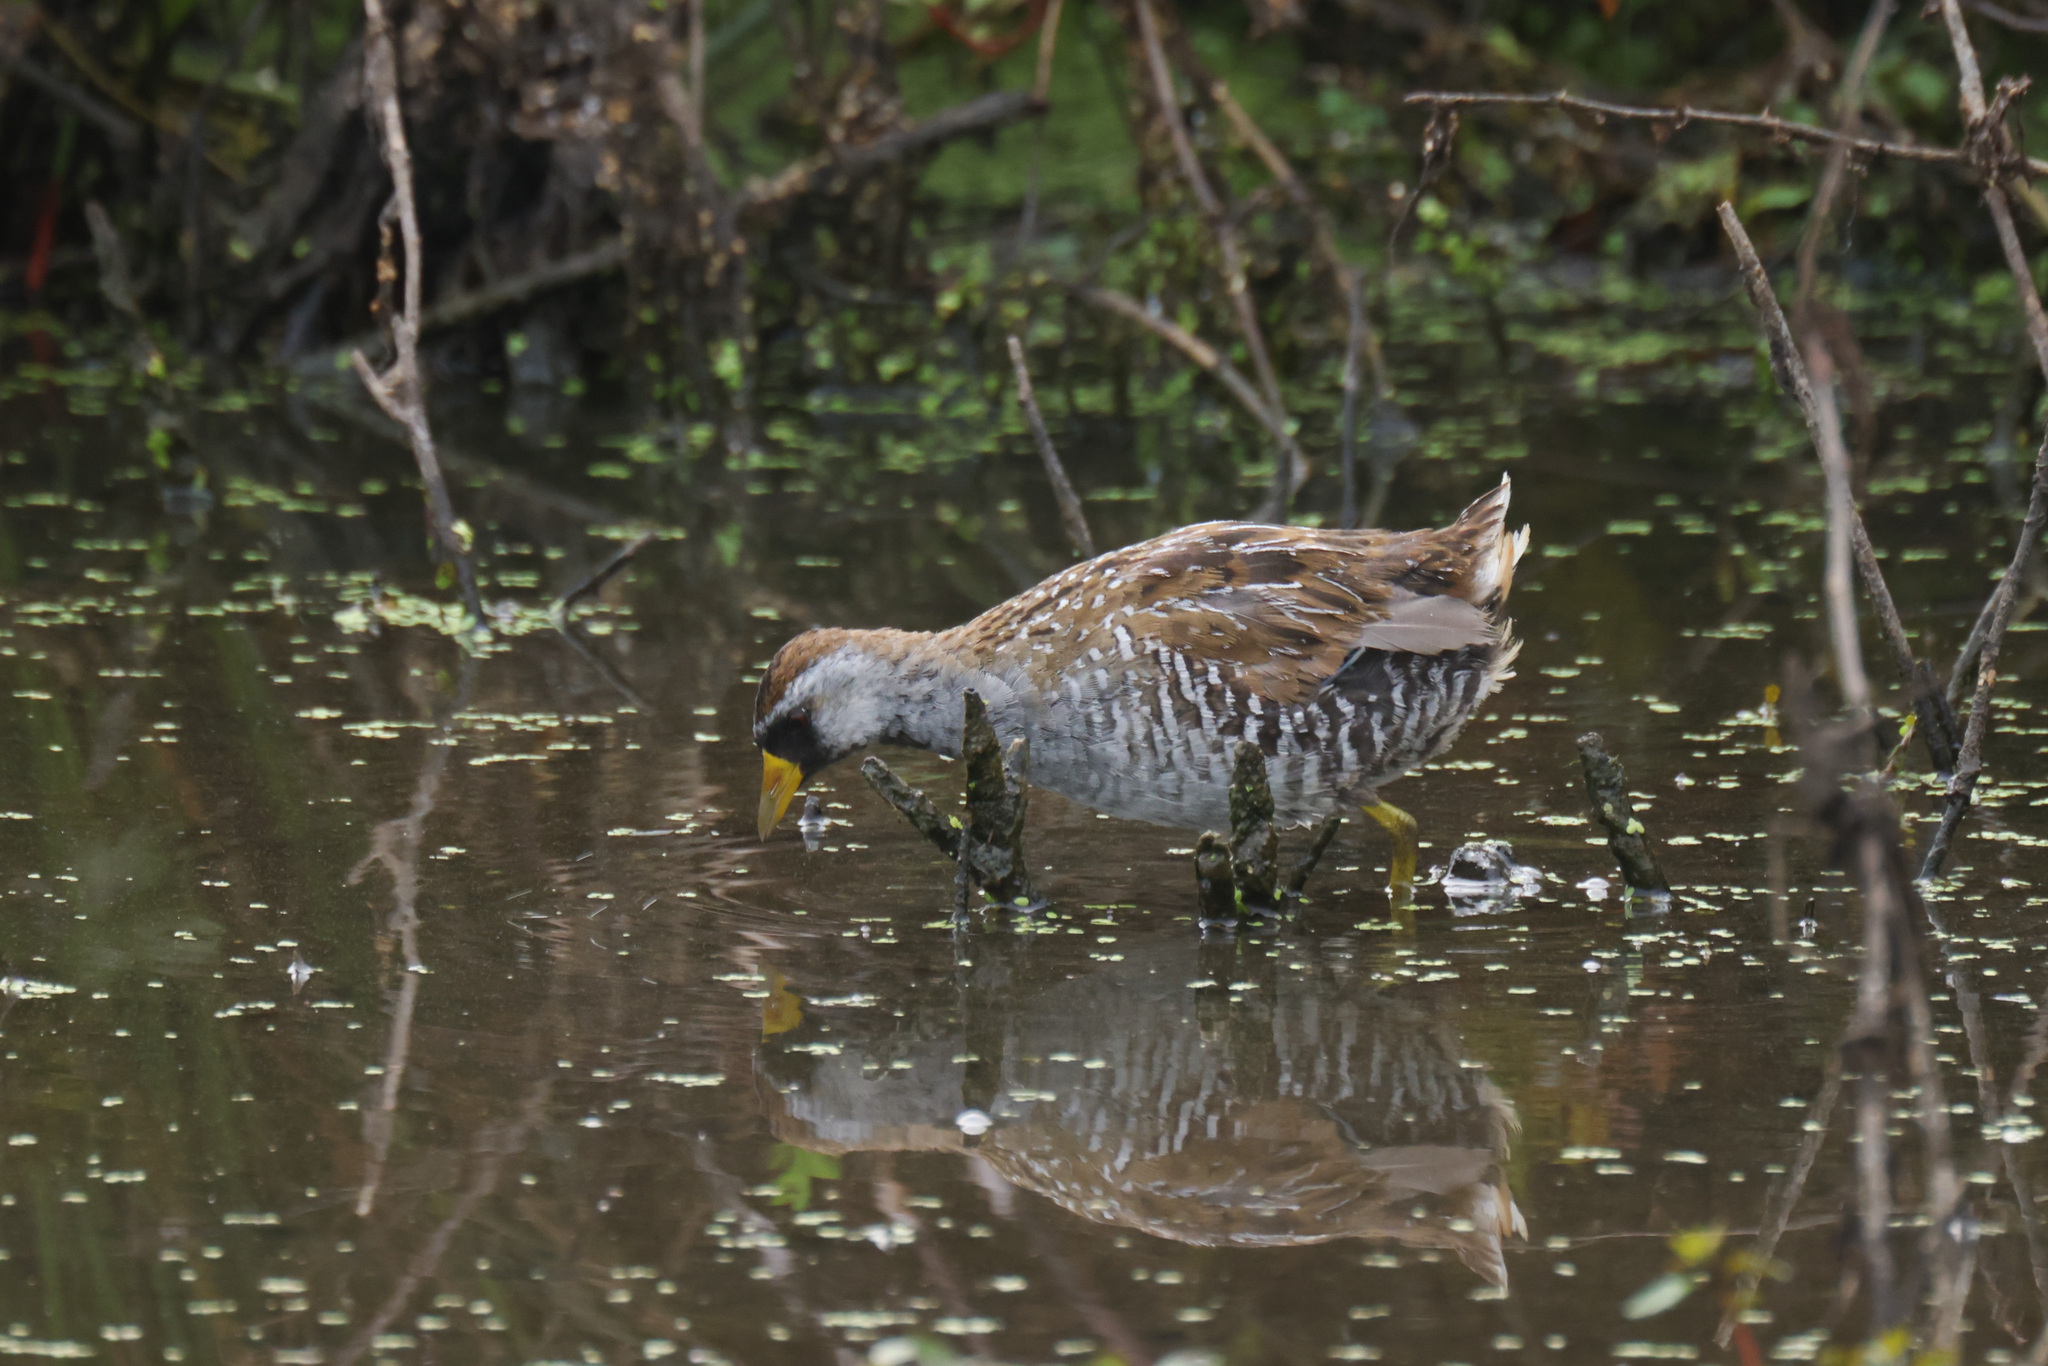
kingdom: Animalia
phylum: Chordata
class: Aves
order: Gruiformes
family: Rallidae
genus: Porzana
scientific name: Porzana carolina
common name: Sora
